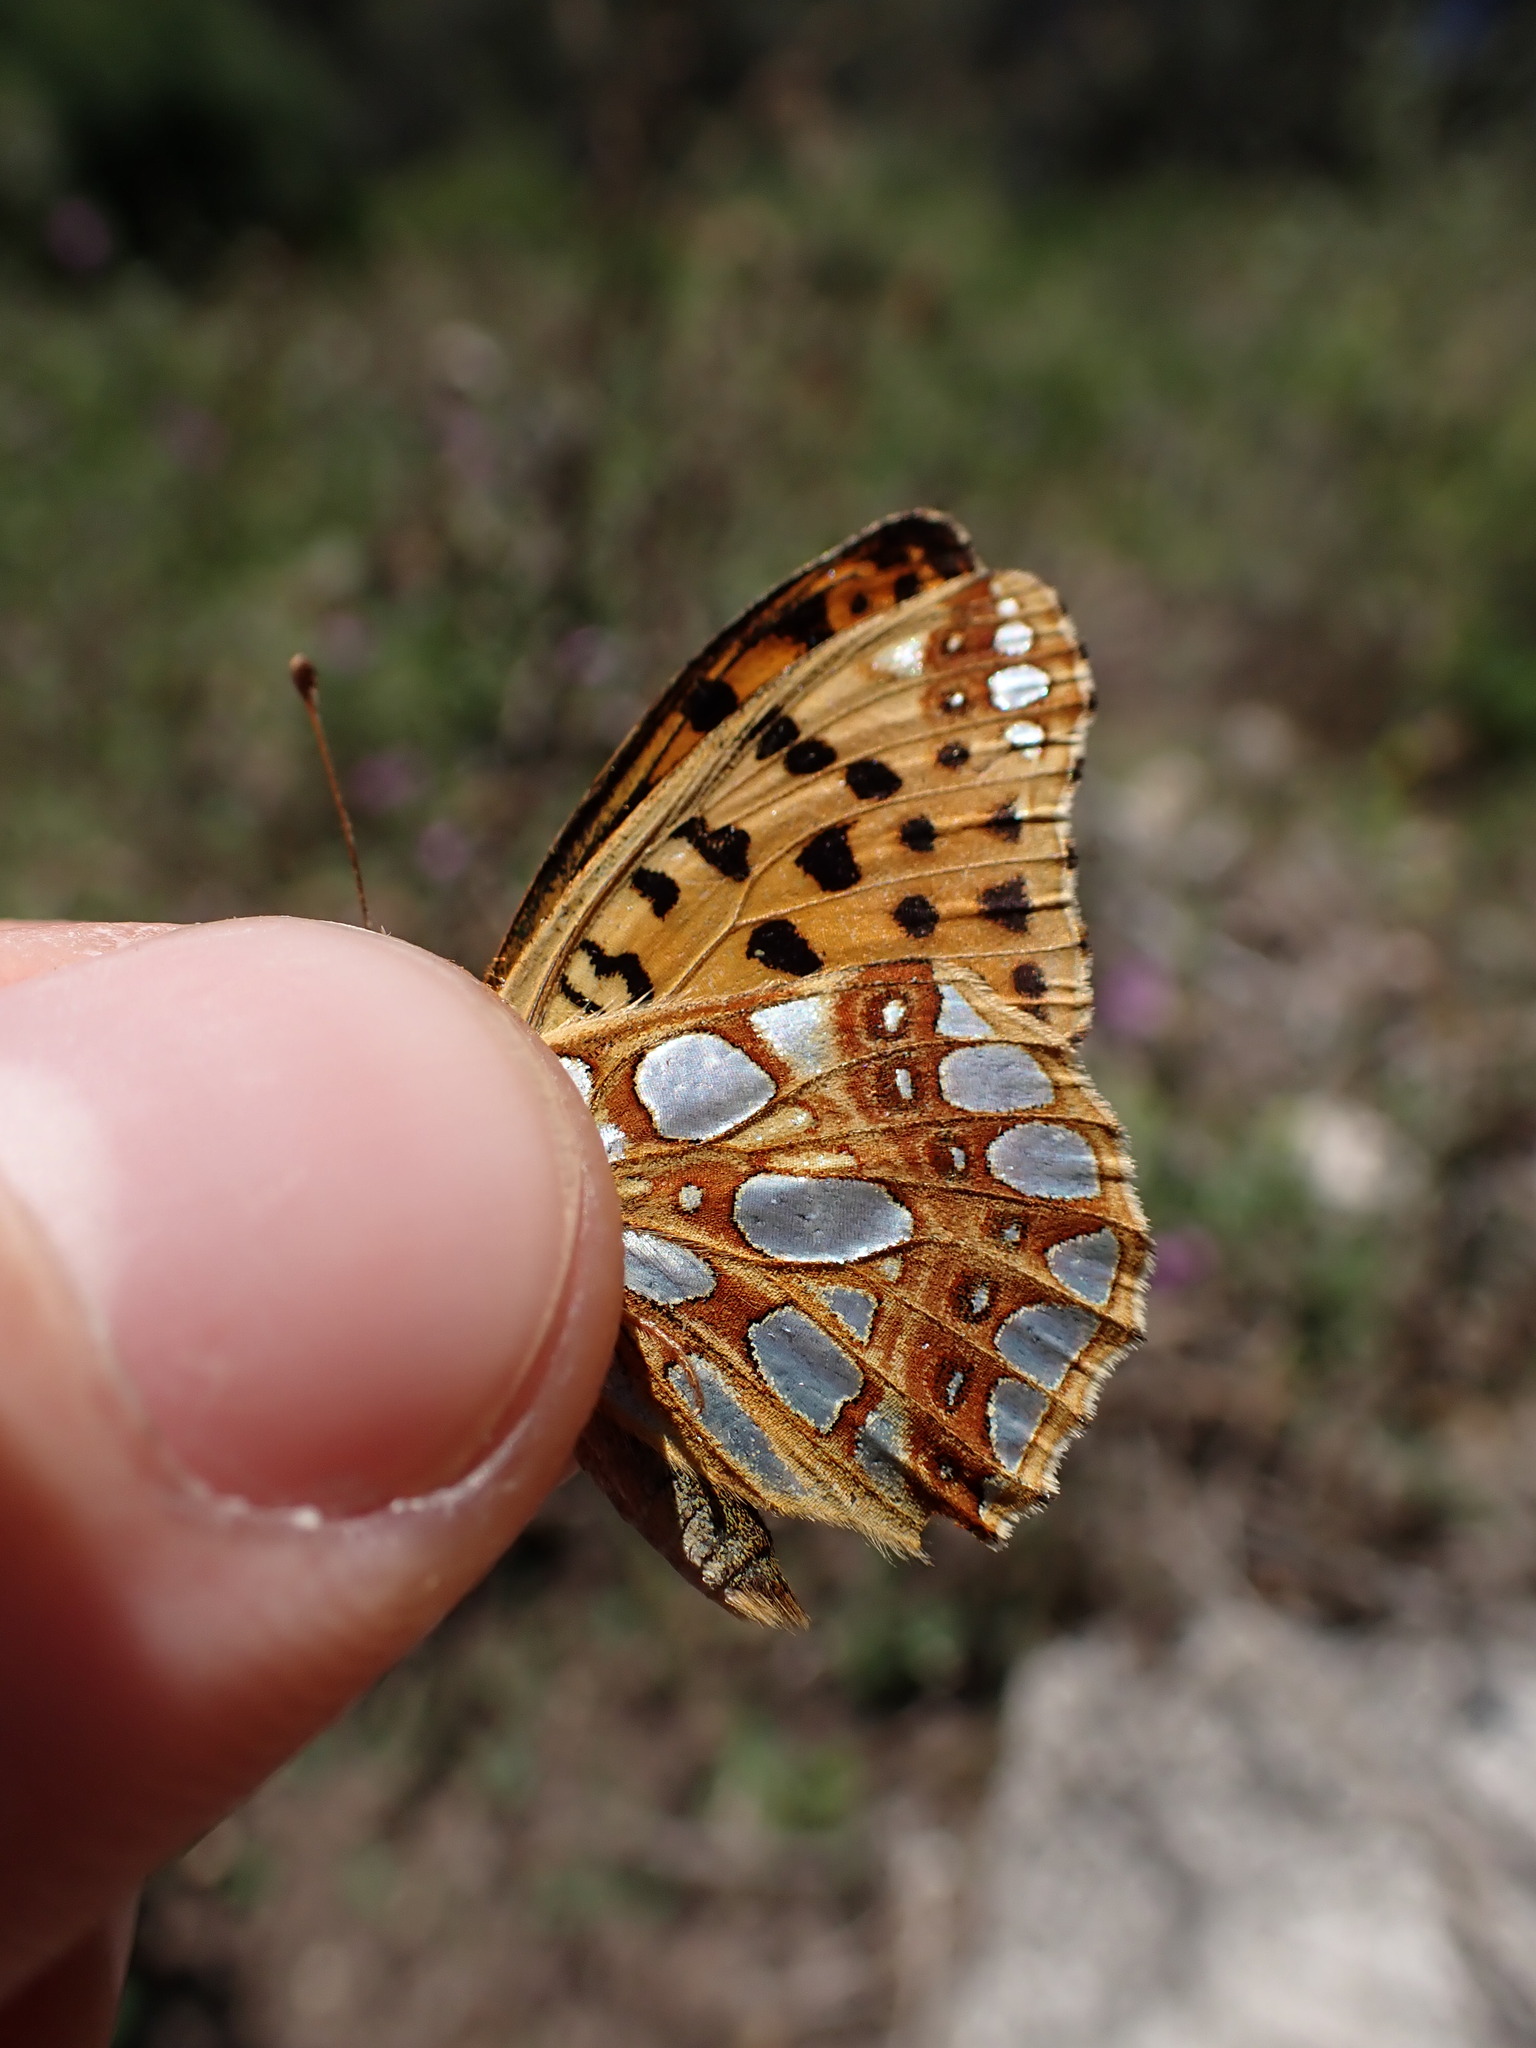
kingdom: Animalia
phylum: Arthropoda
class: Insecta
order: Lepidoptera
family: Nymphalidae
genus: Issoria
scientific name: Issoria lathonia
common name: Queen of spain fritillary
